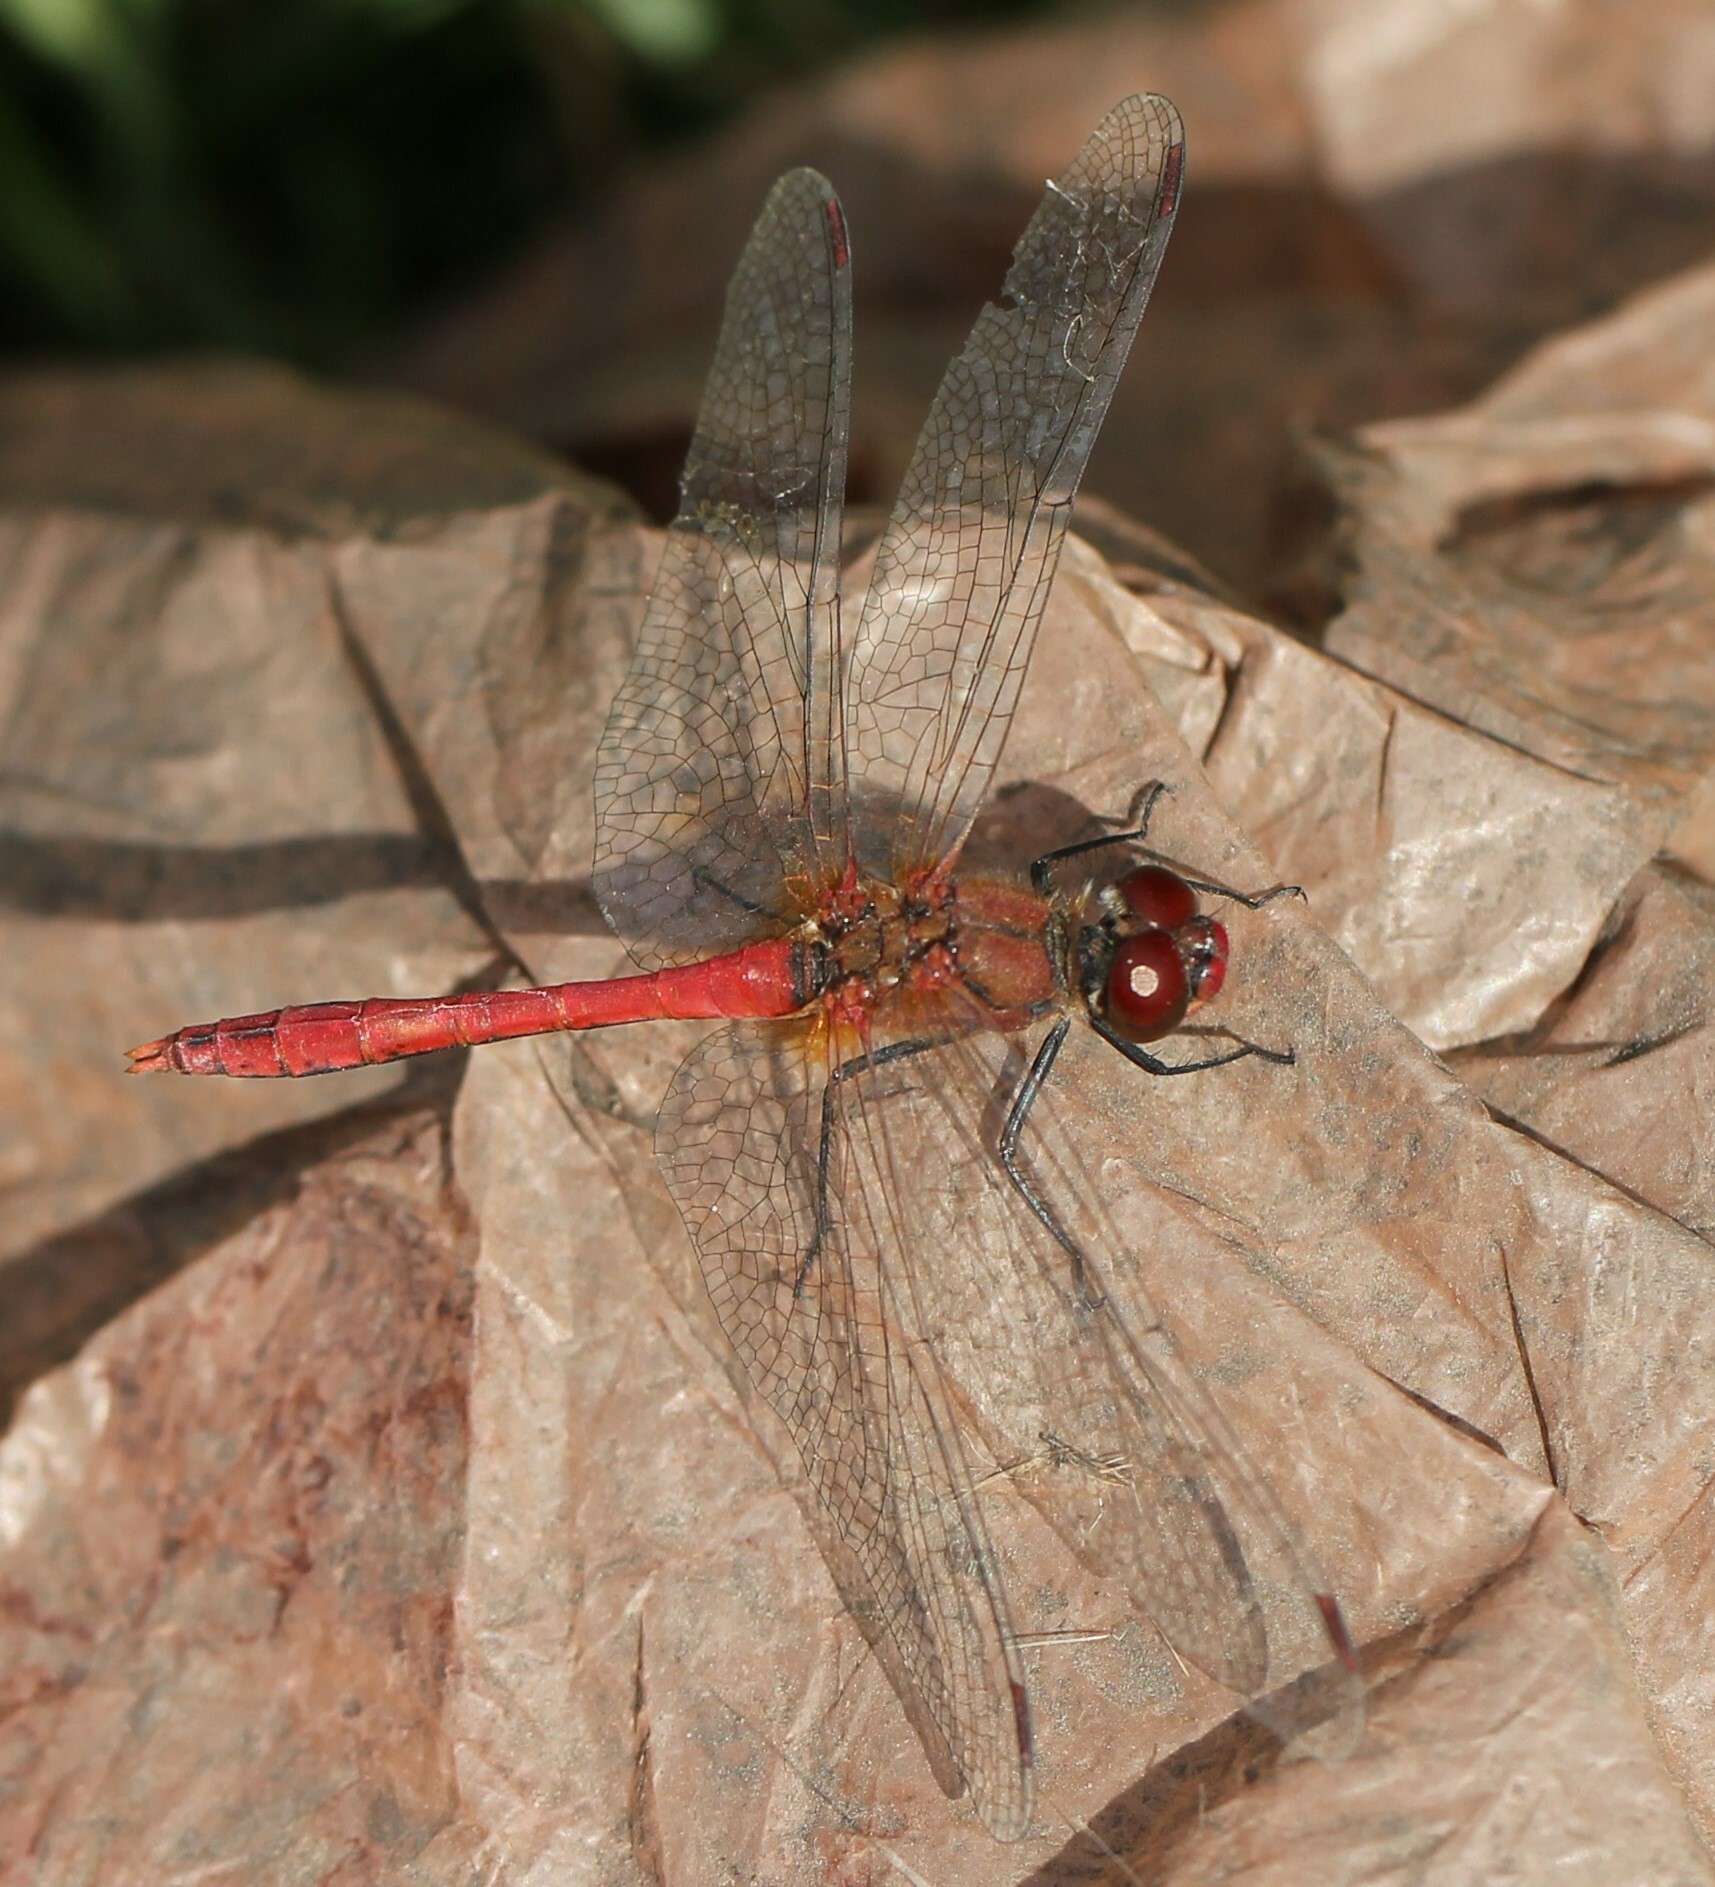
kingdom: Animalia
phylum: Arthropoda
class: Insecta
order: Odonata
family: Libellulidae
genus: Sympetrum
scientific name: Sympetrum sanguineum
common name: Ruddy darter
